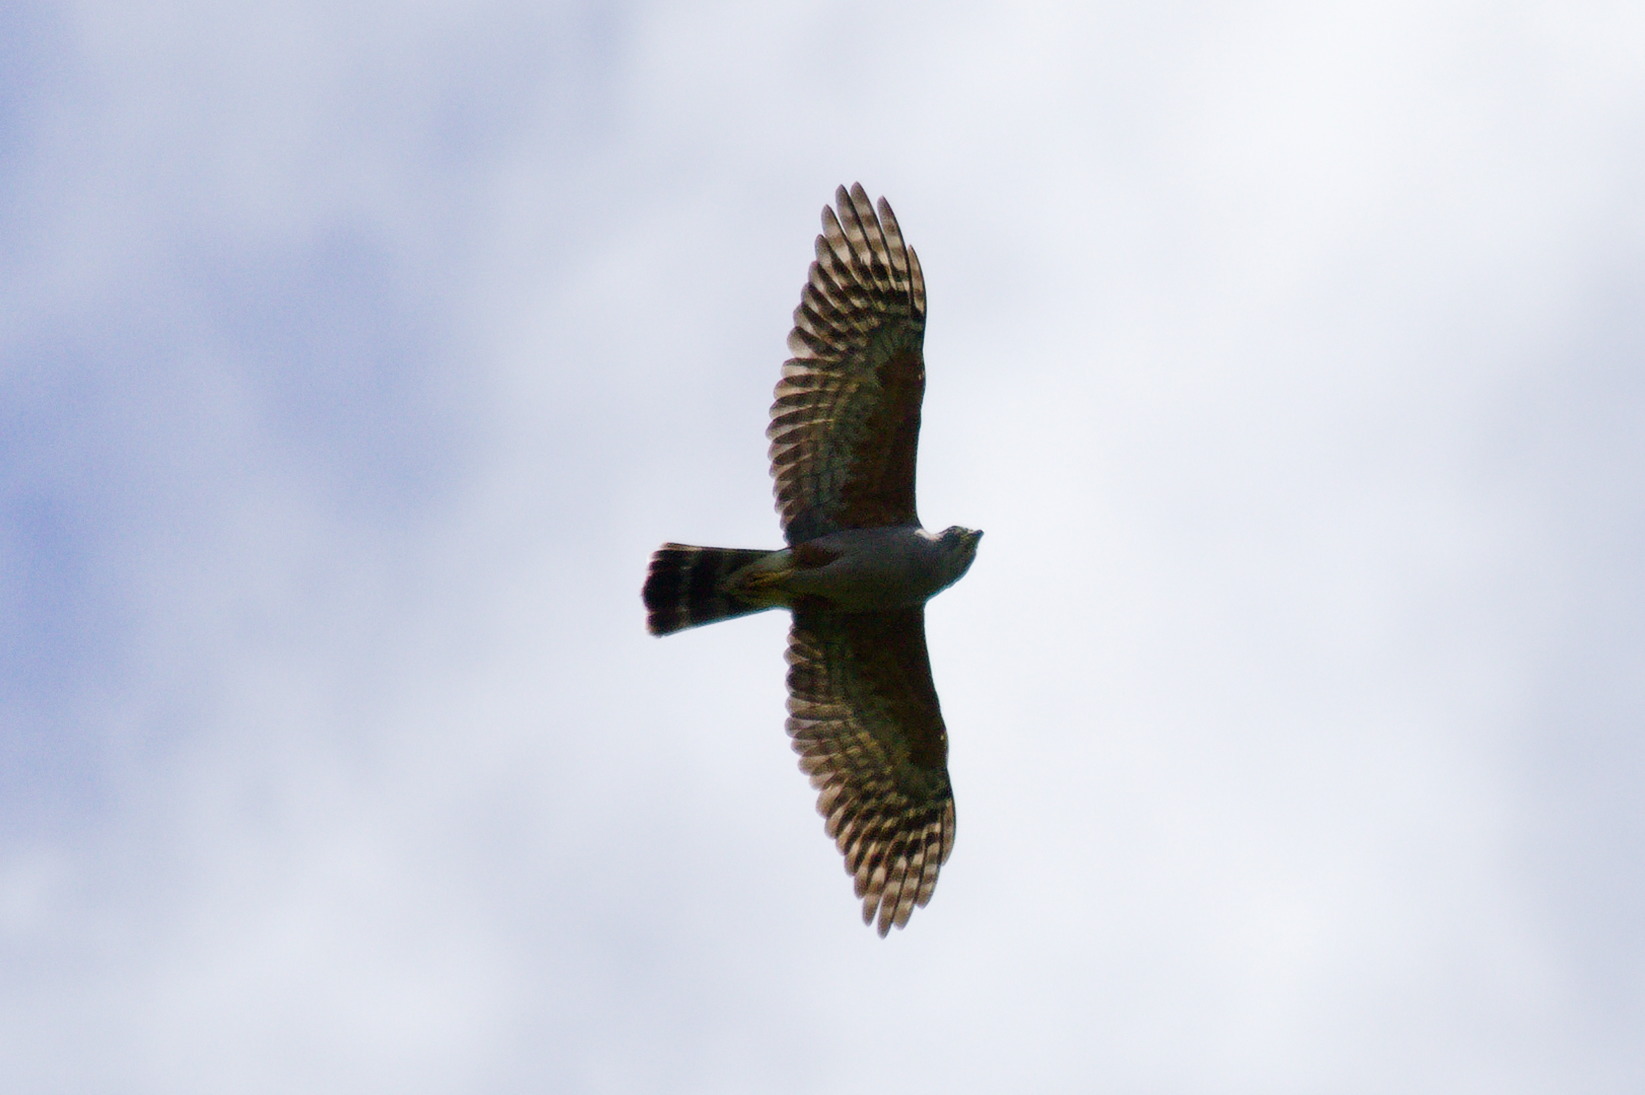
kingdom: Animalia
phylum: Chordata
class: Aves
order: Accipitriformes
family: Accipitridae
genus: Harpagus
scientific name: Harpagus diodon
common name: Rufous-thighed kite
